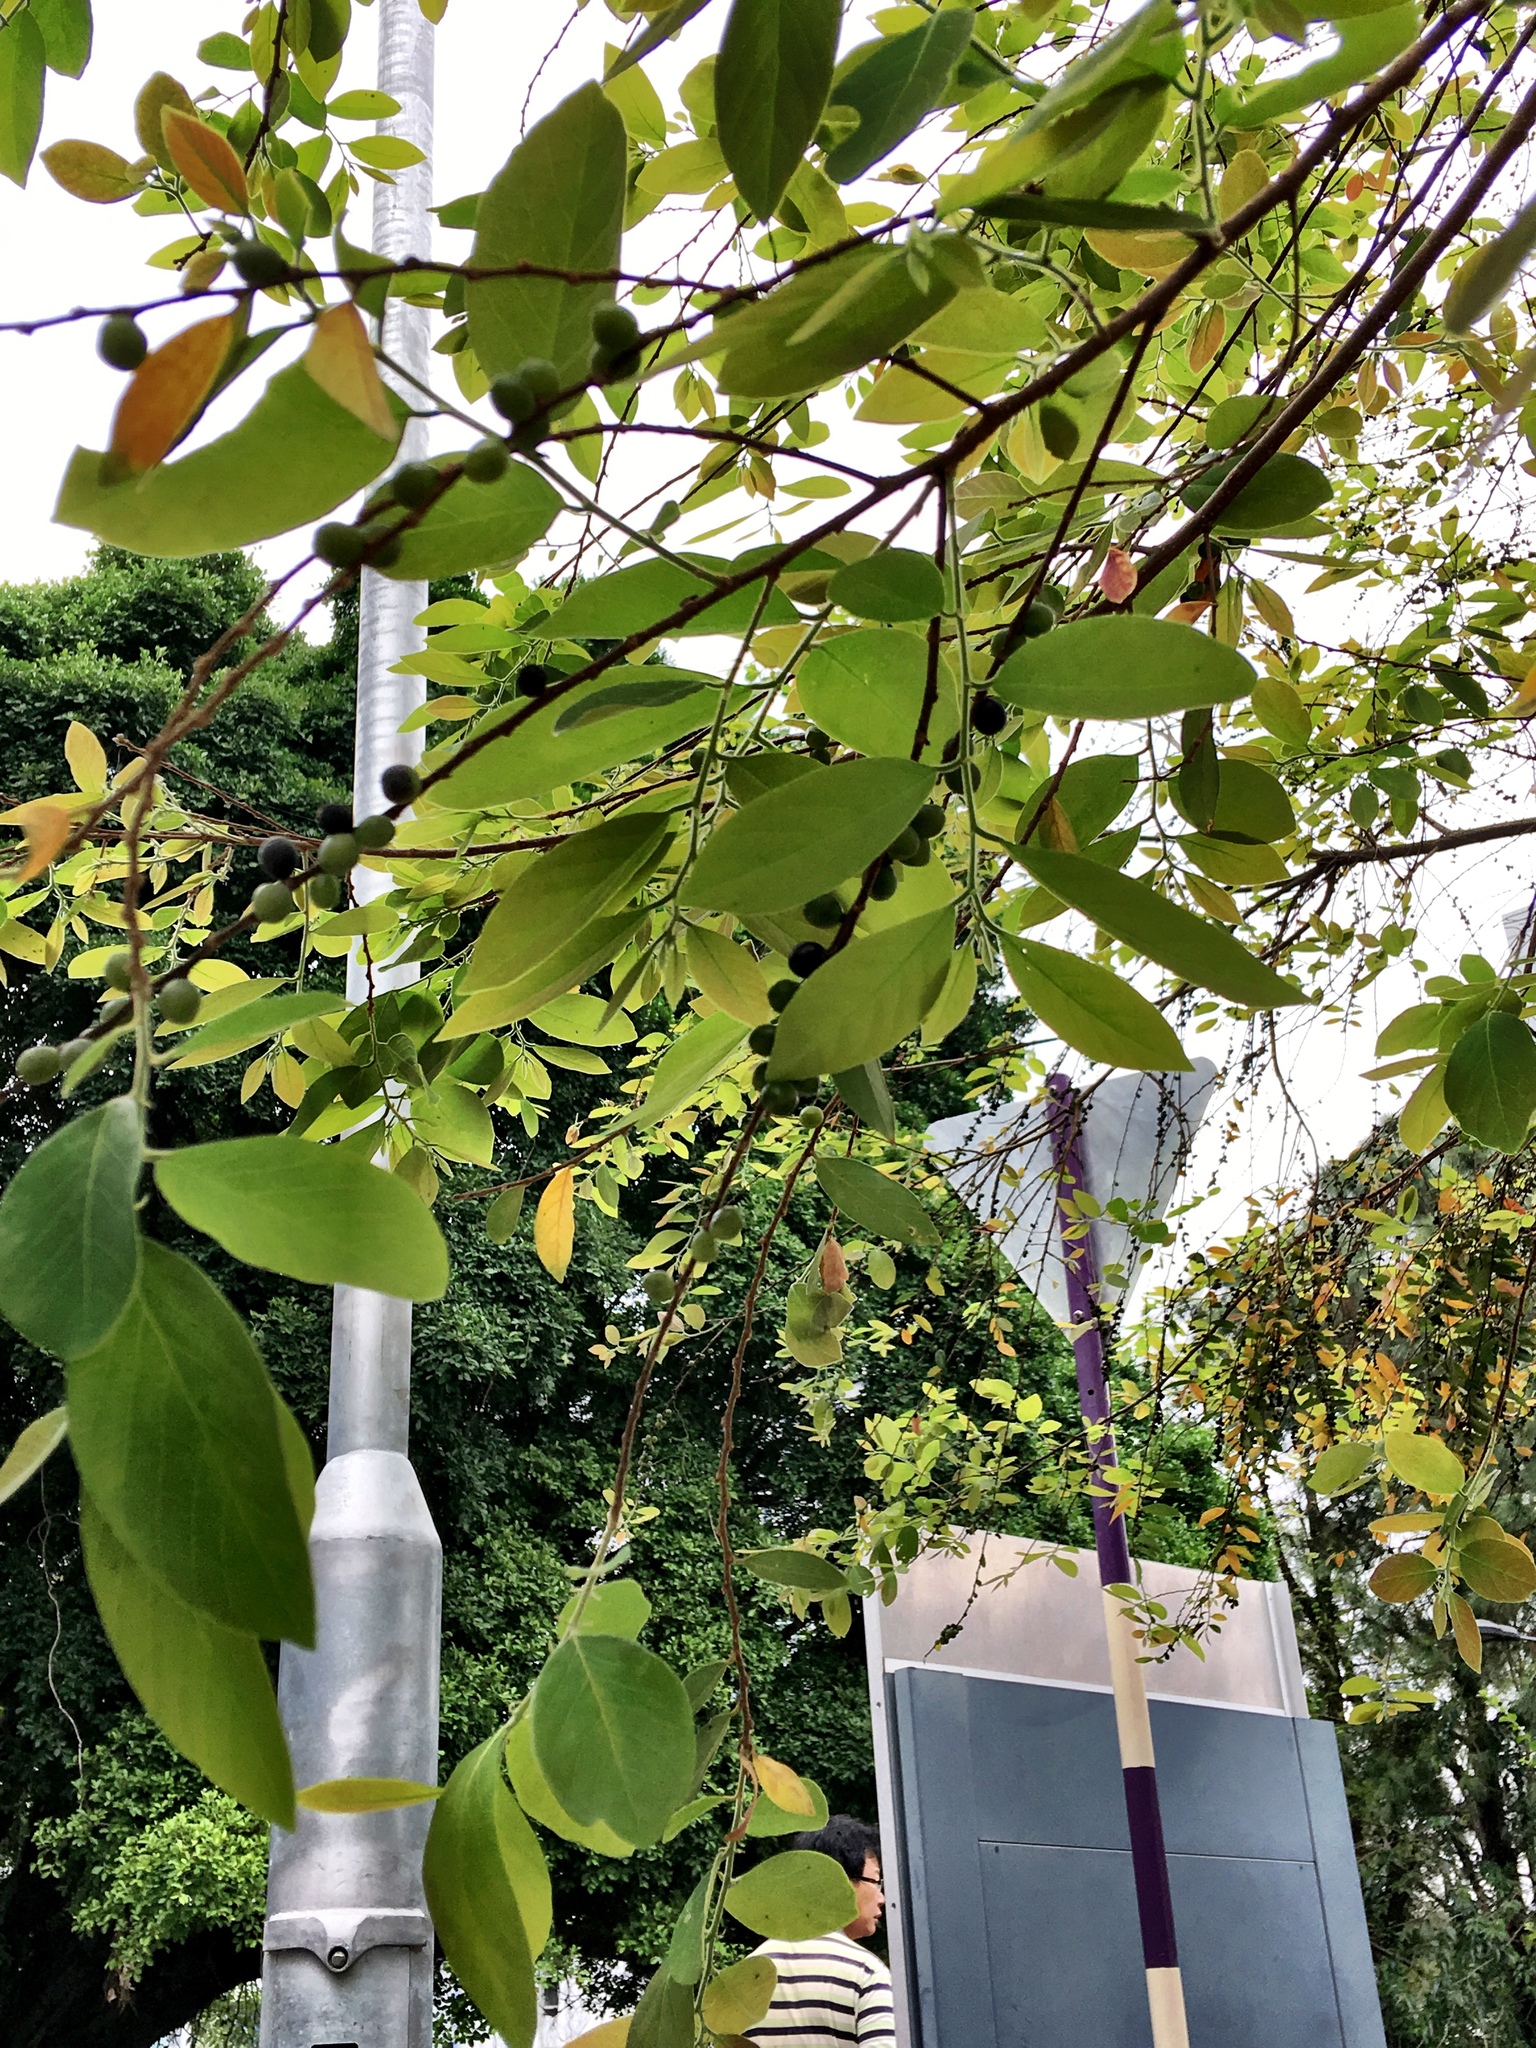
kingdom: Plantae
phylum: Tracheophyta
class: Magnoliopsida
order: Malpighiales
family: Phyllanthaceae
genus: Bridelia
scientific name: Bridelia tomentosa
